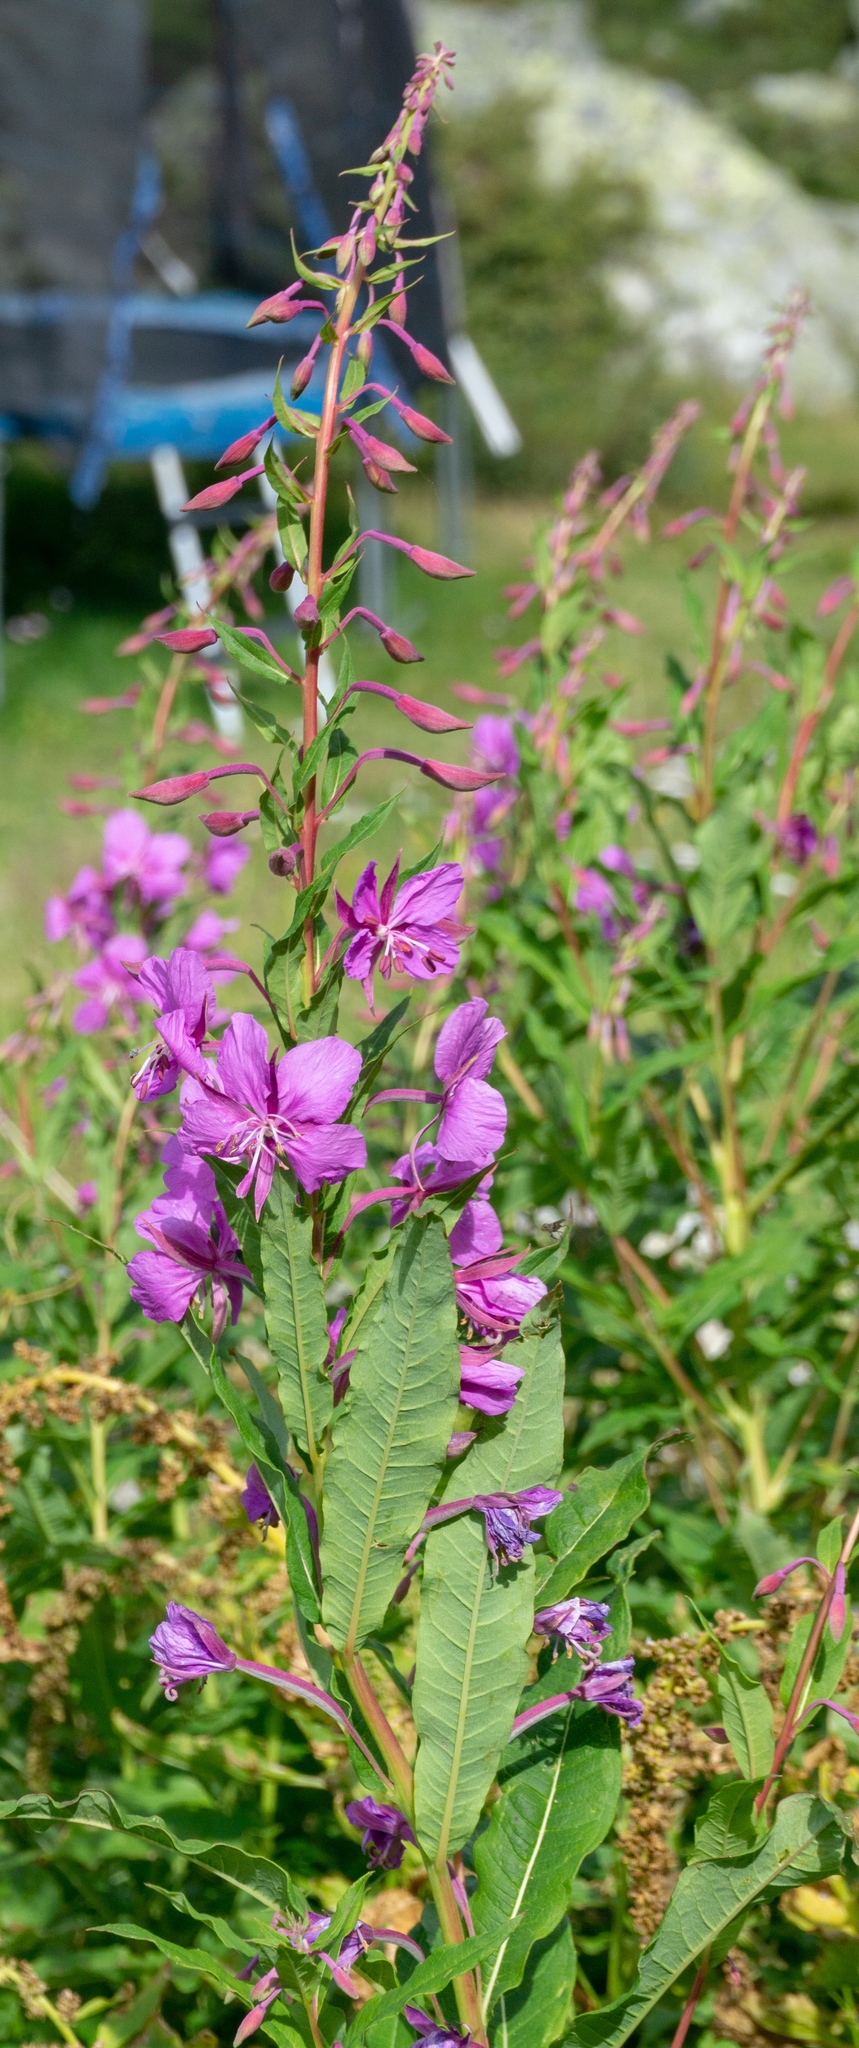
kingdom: Plantae
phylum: Tracheophyta
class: Magnoliopsida
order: Myrtales
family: Onagraceae
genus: Chamaenerion
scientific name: Chamaenerion angustifolium
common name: Fireweed
